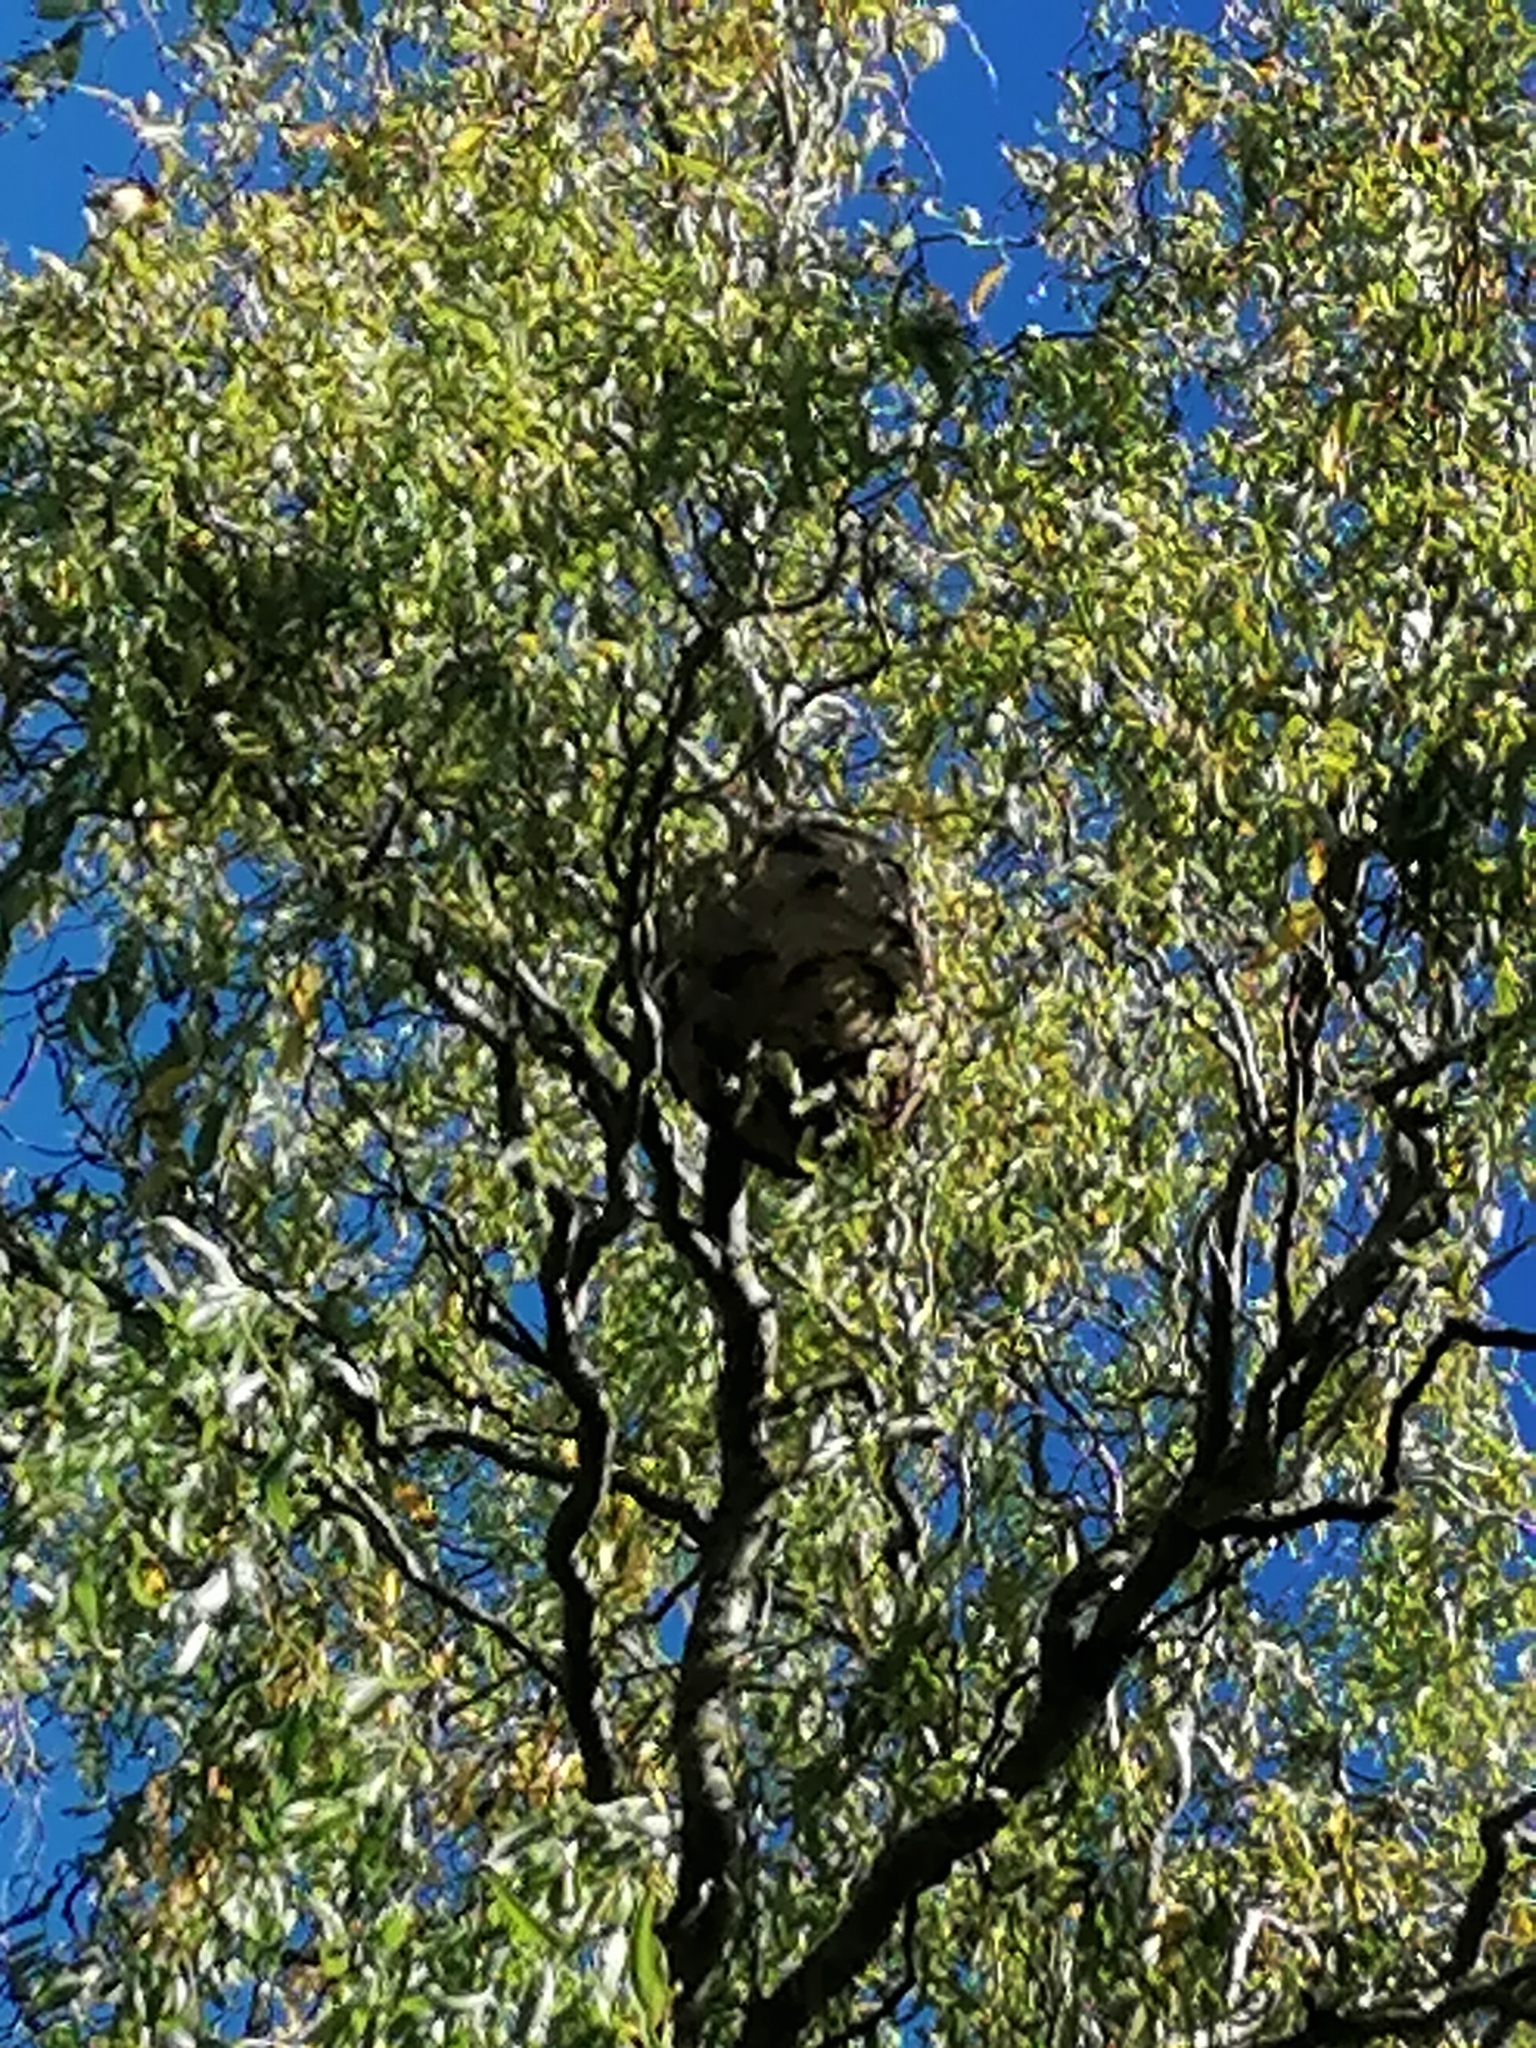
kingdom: Animalia
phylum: Arthropoda
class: Insecta
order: Hymenoptera
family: Vespidae
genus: Vespa
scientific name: Vespa velutina
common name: Asian hornet
